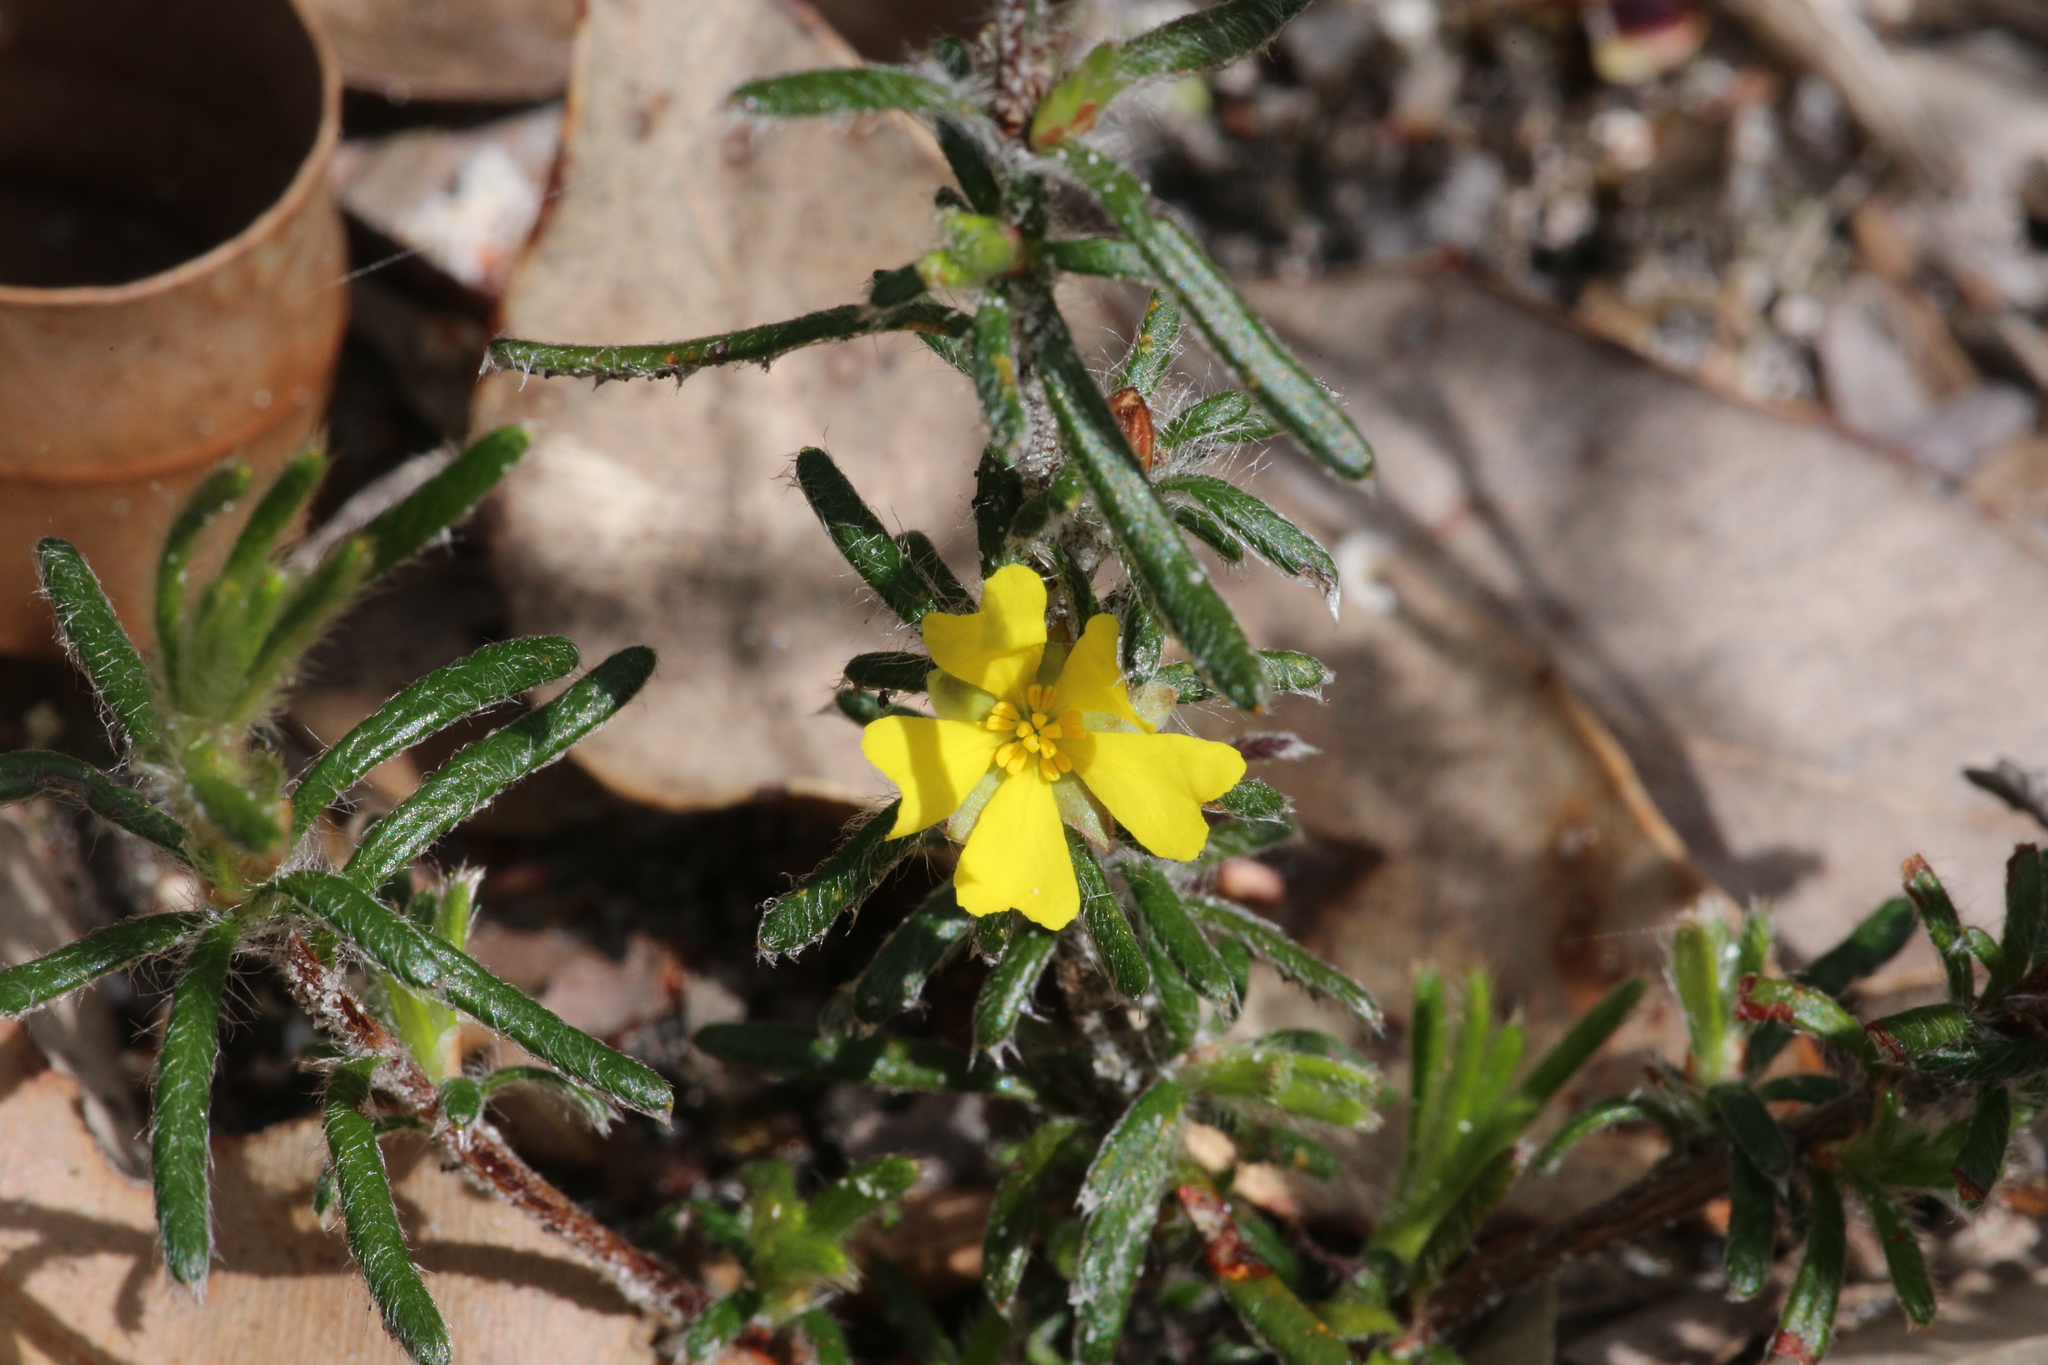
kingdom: Plantae
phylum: Tracheophyta
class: Magnoliopsida
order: Dilleniales
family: Dilleniaceae
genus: Hibbertia
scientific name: Hibbertia depressa
